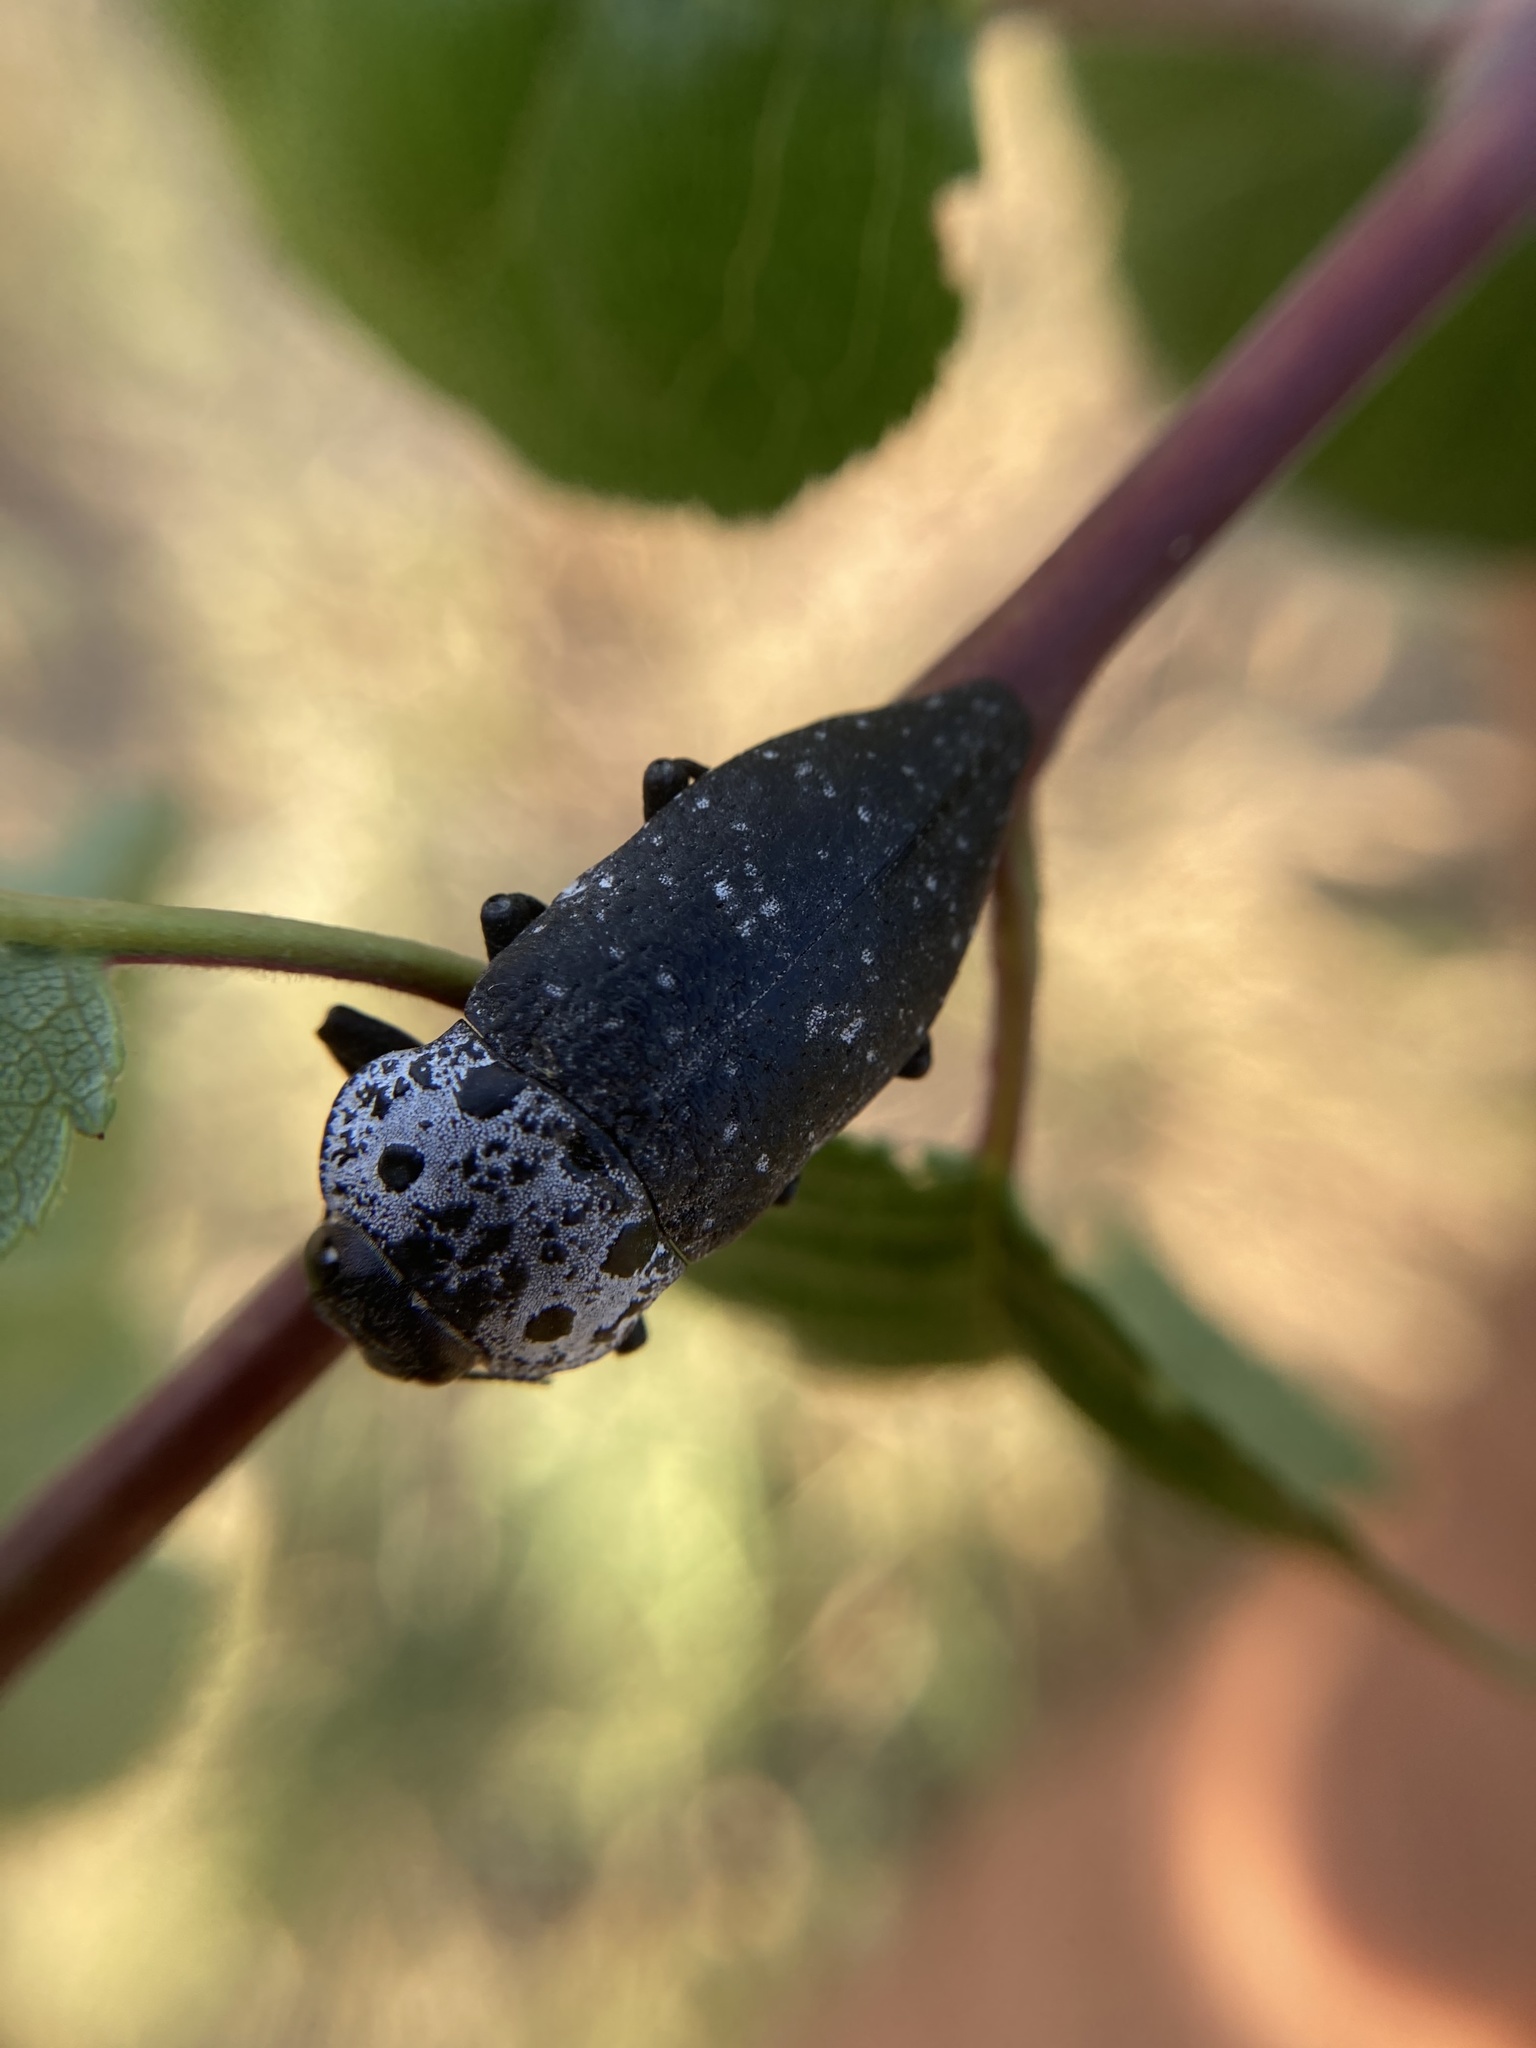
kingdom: Animalia
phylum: Arthropoda
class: Insecta
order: Coleoptera
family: Buprestidae
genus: Capnodis
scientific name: Capnodis tenebrionis
